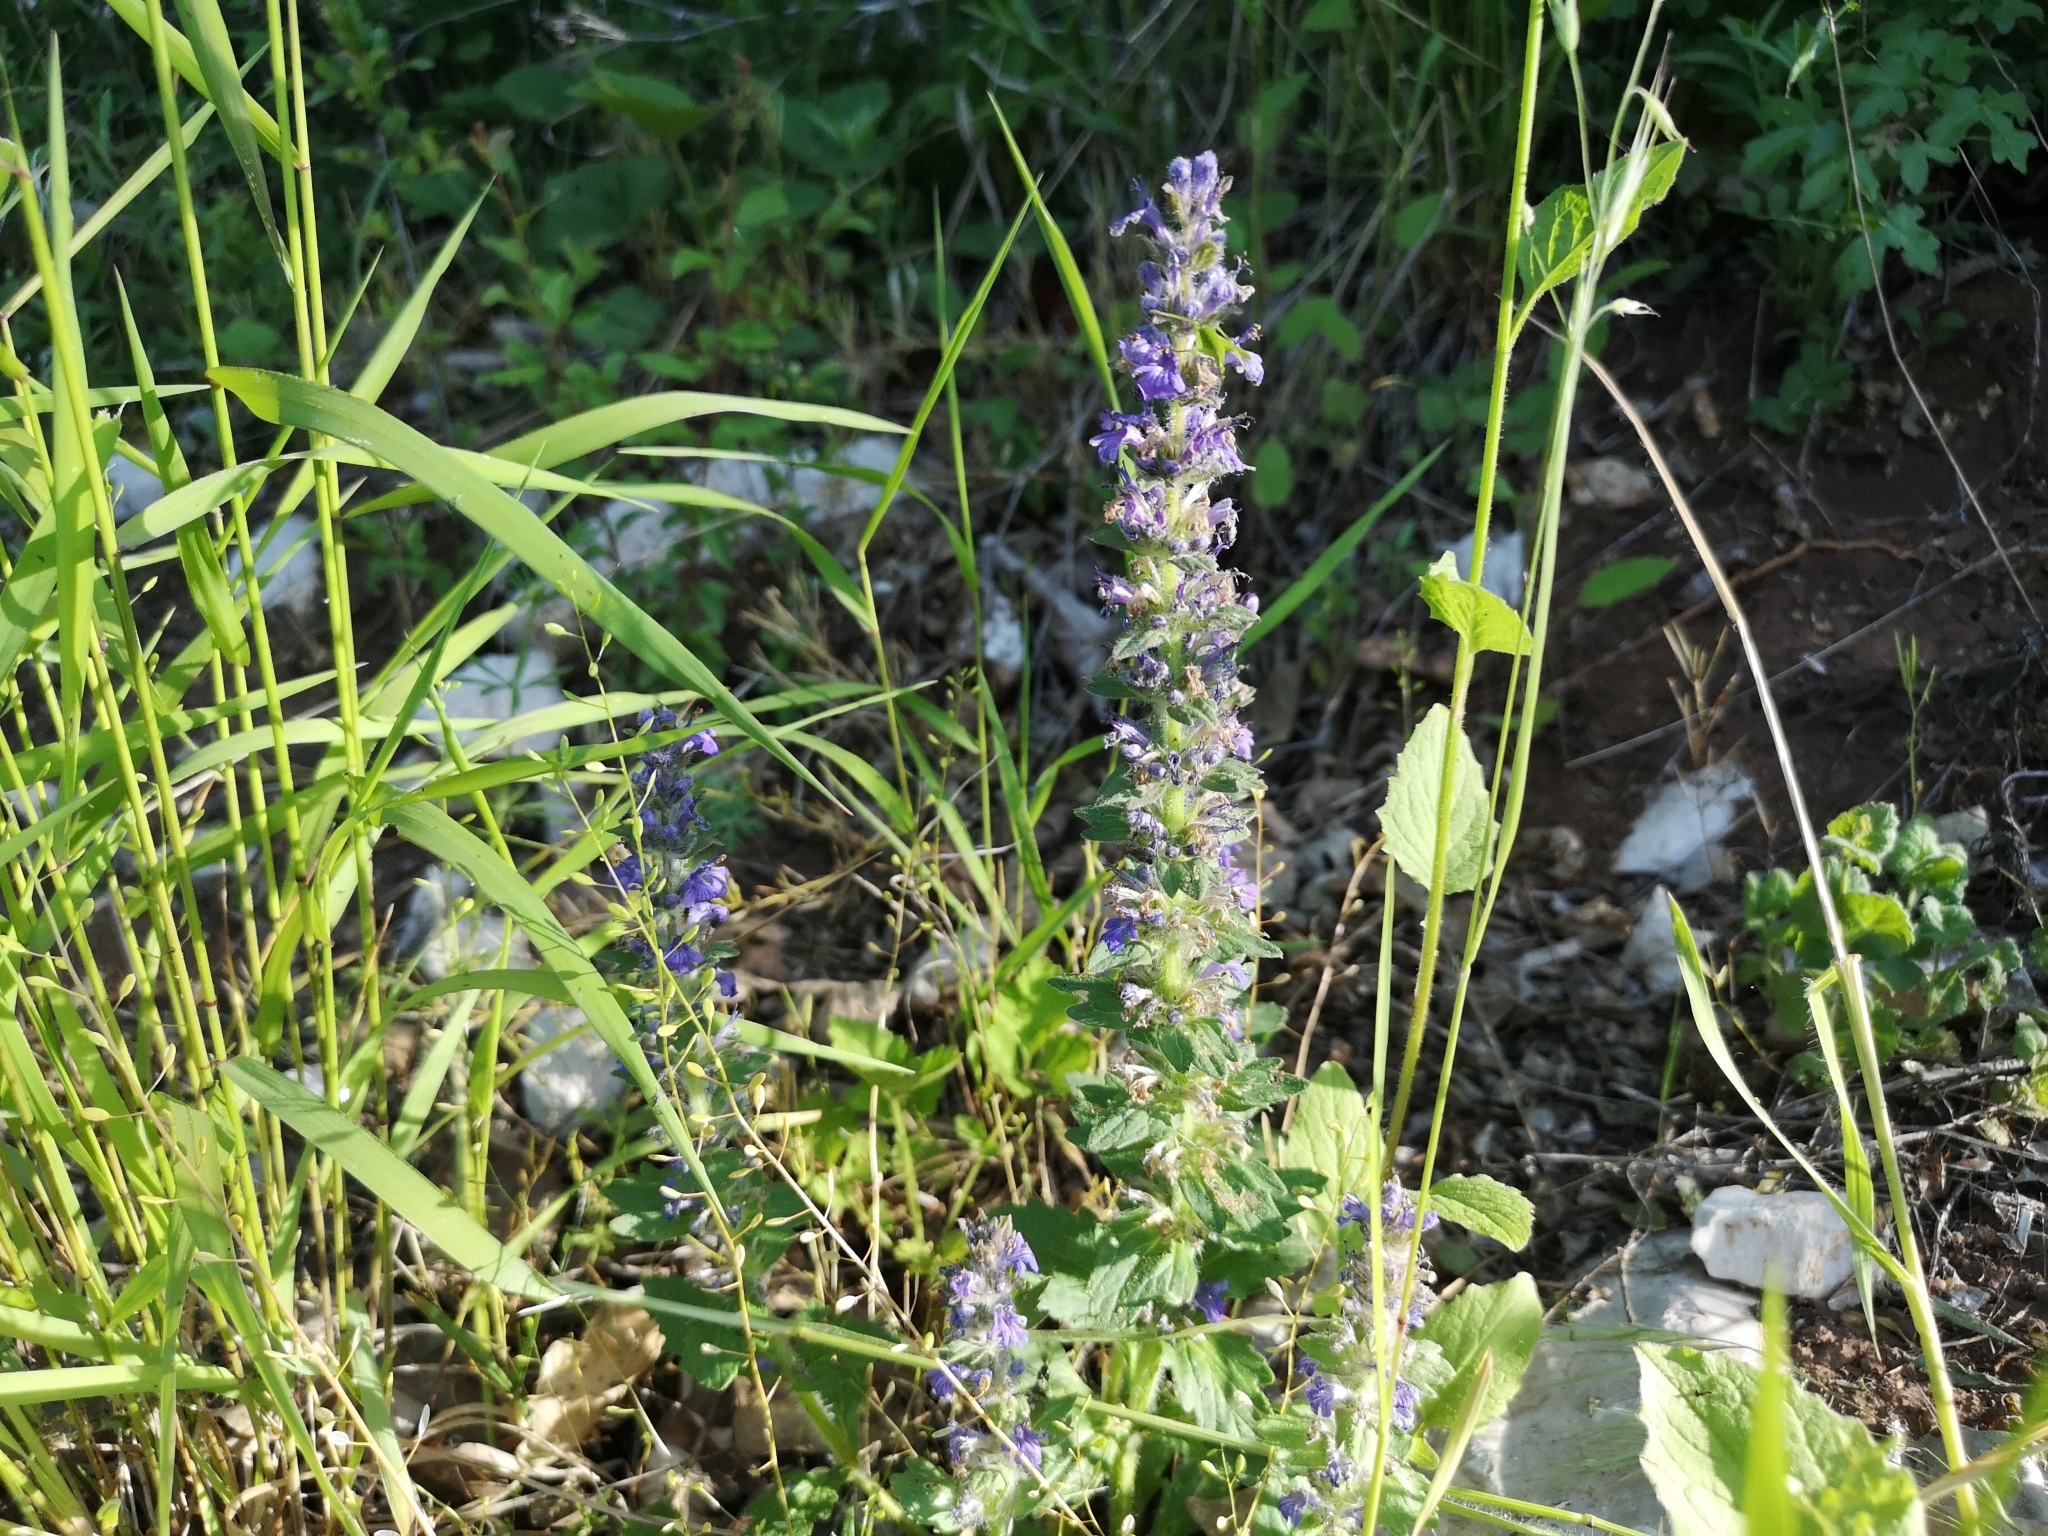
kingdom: Plantae
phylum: Tracheophyta
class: Magnoliopsida
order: Lamiales
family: Lamiaceae
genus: Ajuga
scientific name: Ajuga genevensis
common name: Blue bugle
